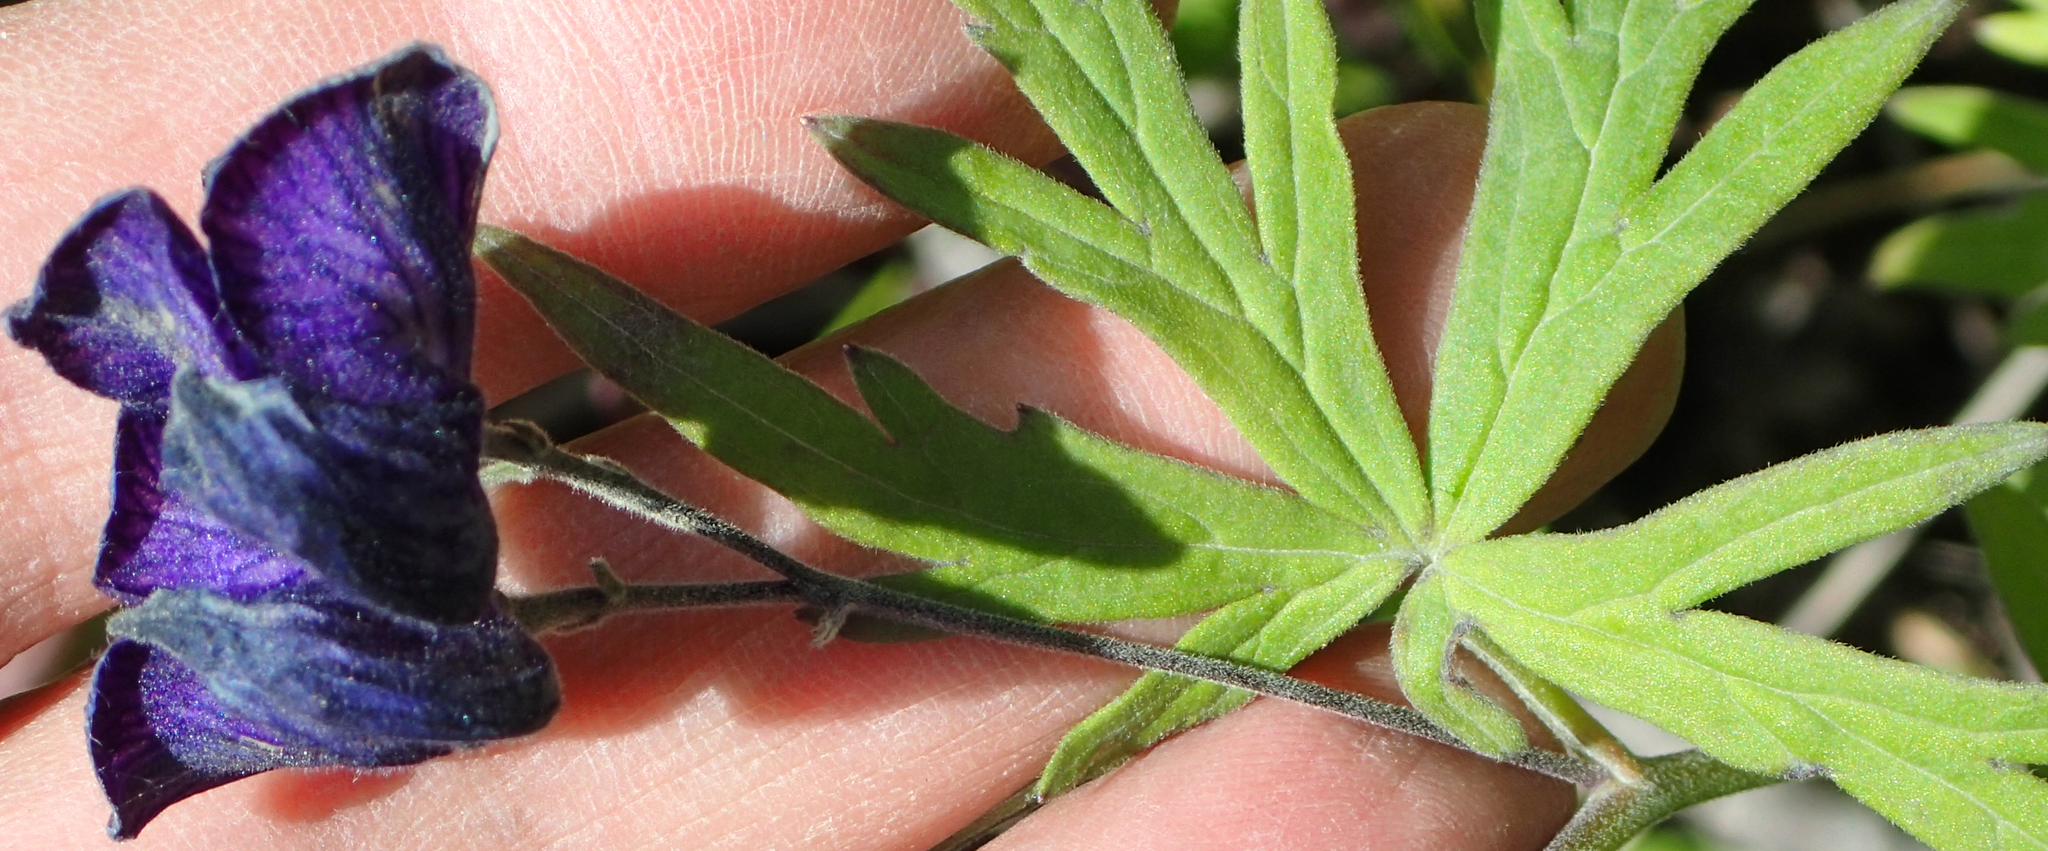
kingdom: Plantae
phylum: Tracheophyta
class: Magnoliopsida
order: Ranunculales
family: Ranunculaceae
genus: Aconitum
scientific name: Aconitum delphiniifolium
